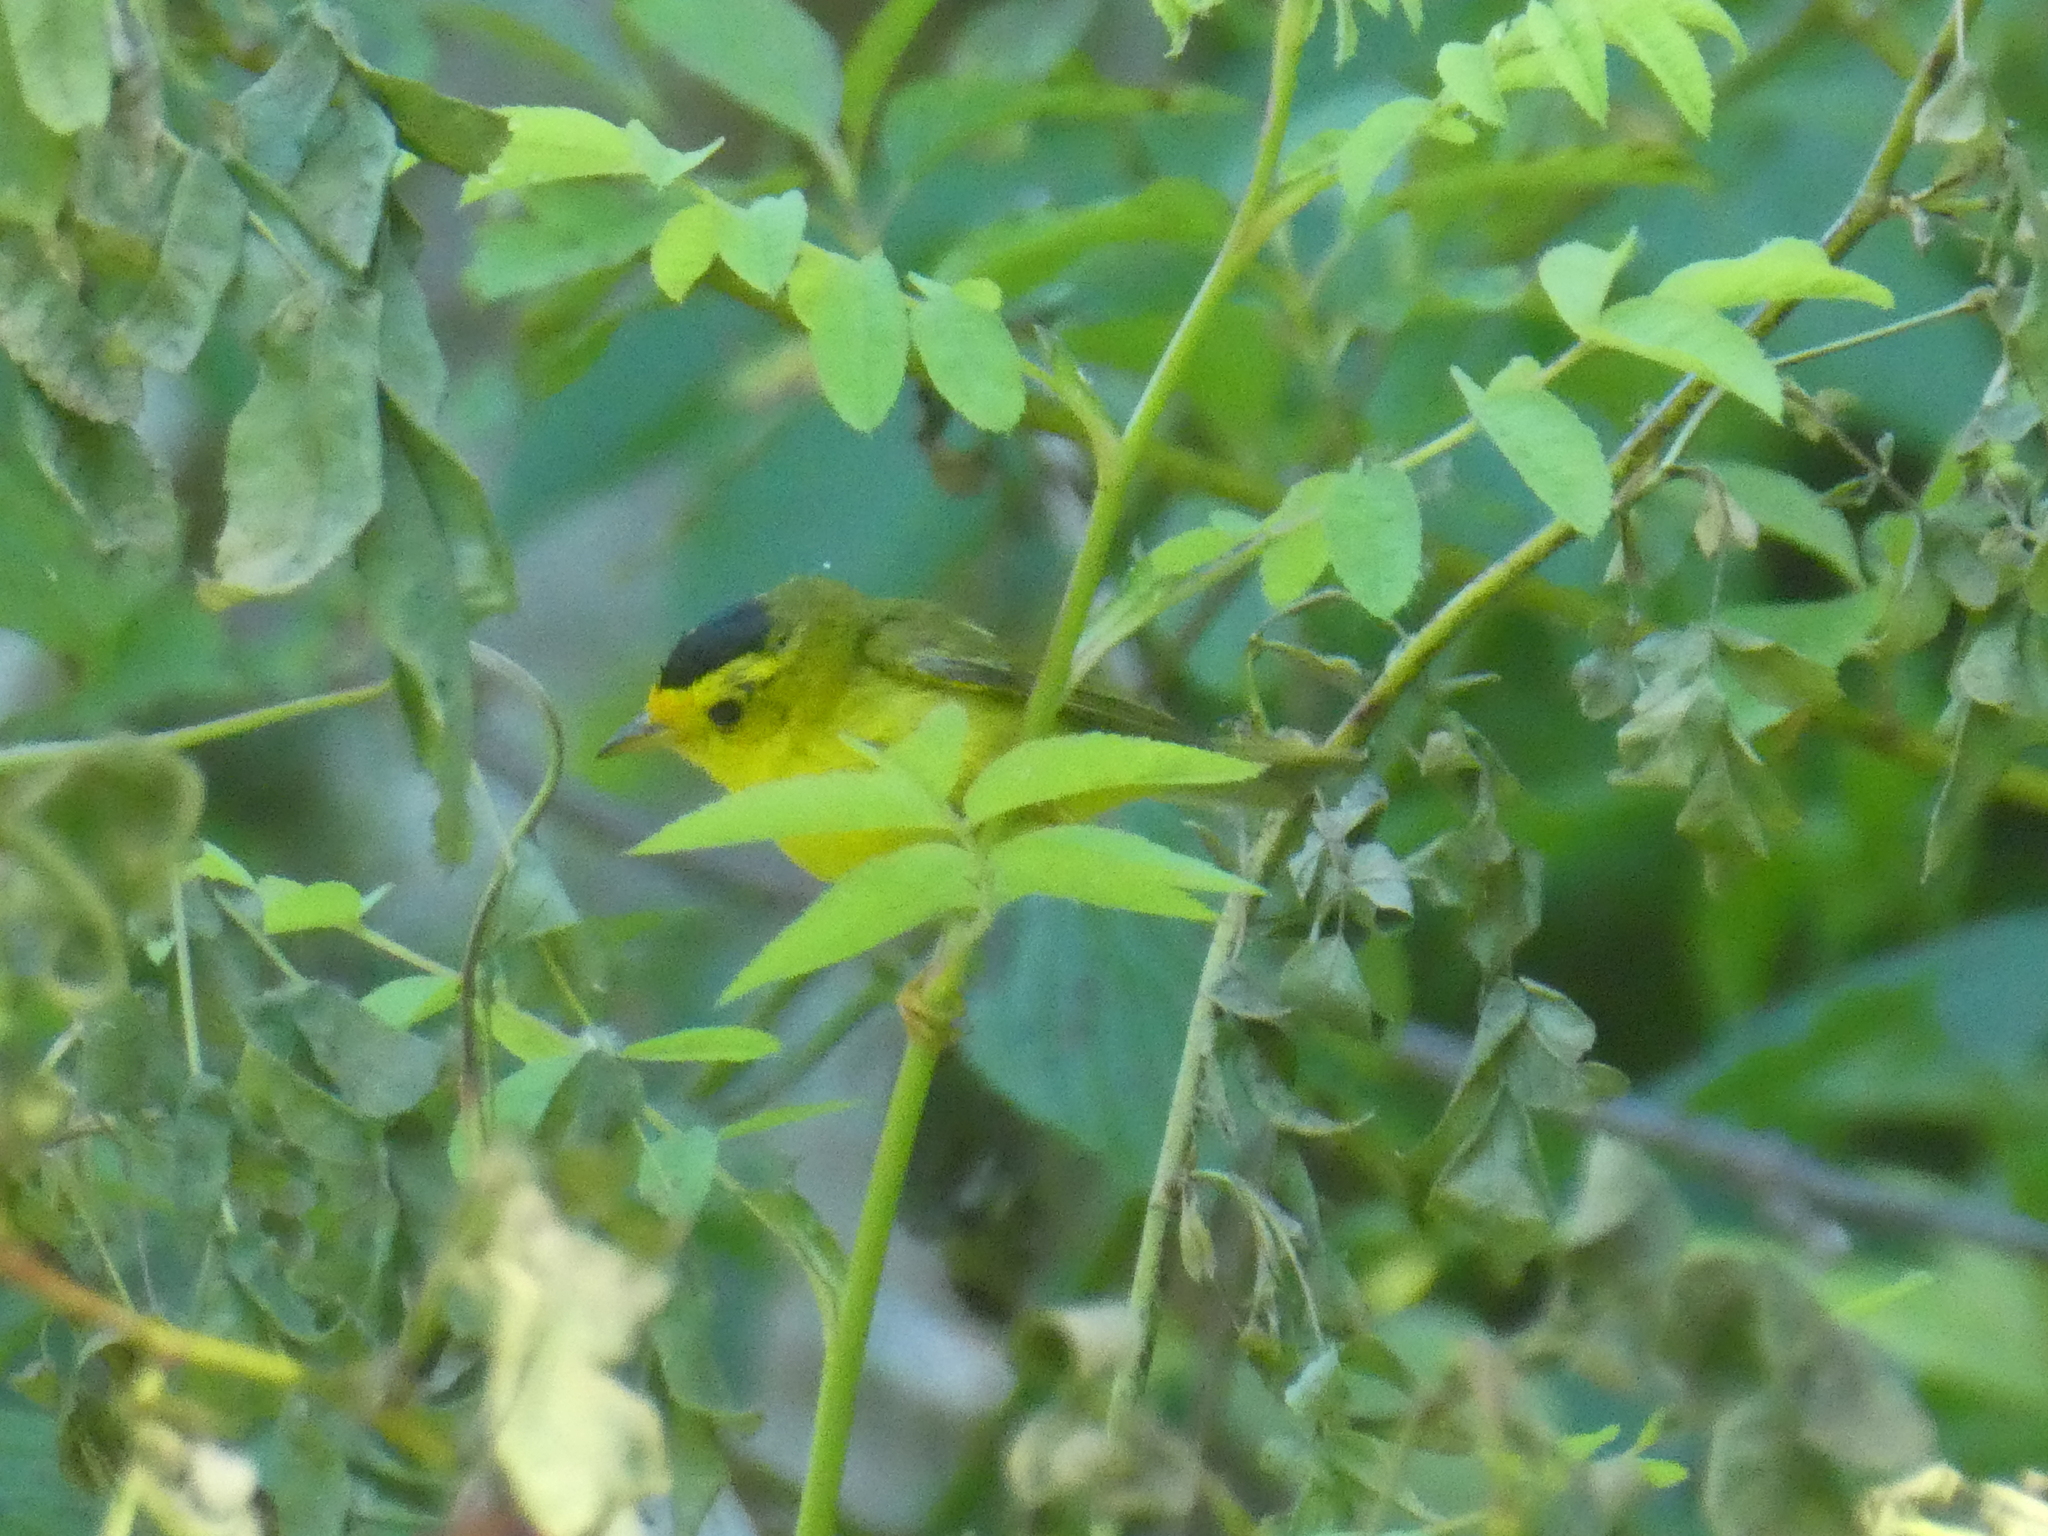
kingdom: Animalia
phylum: Chordata
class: Aves
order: Passeriformes
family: Parulidae
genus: Cardellina
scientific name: Cardellina pusilla
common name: Wilson's warbler
